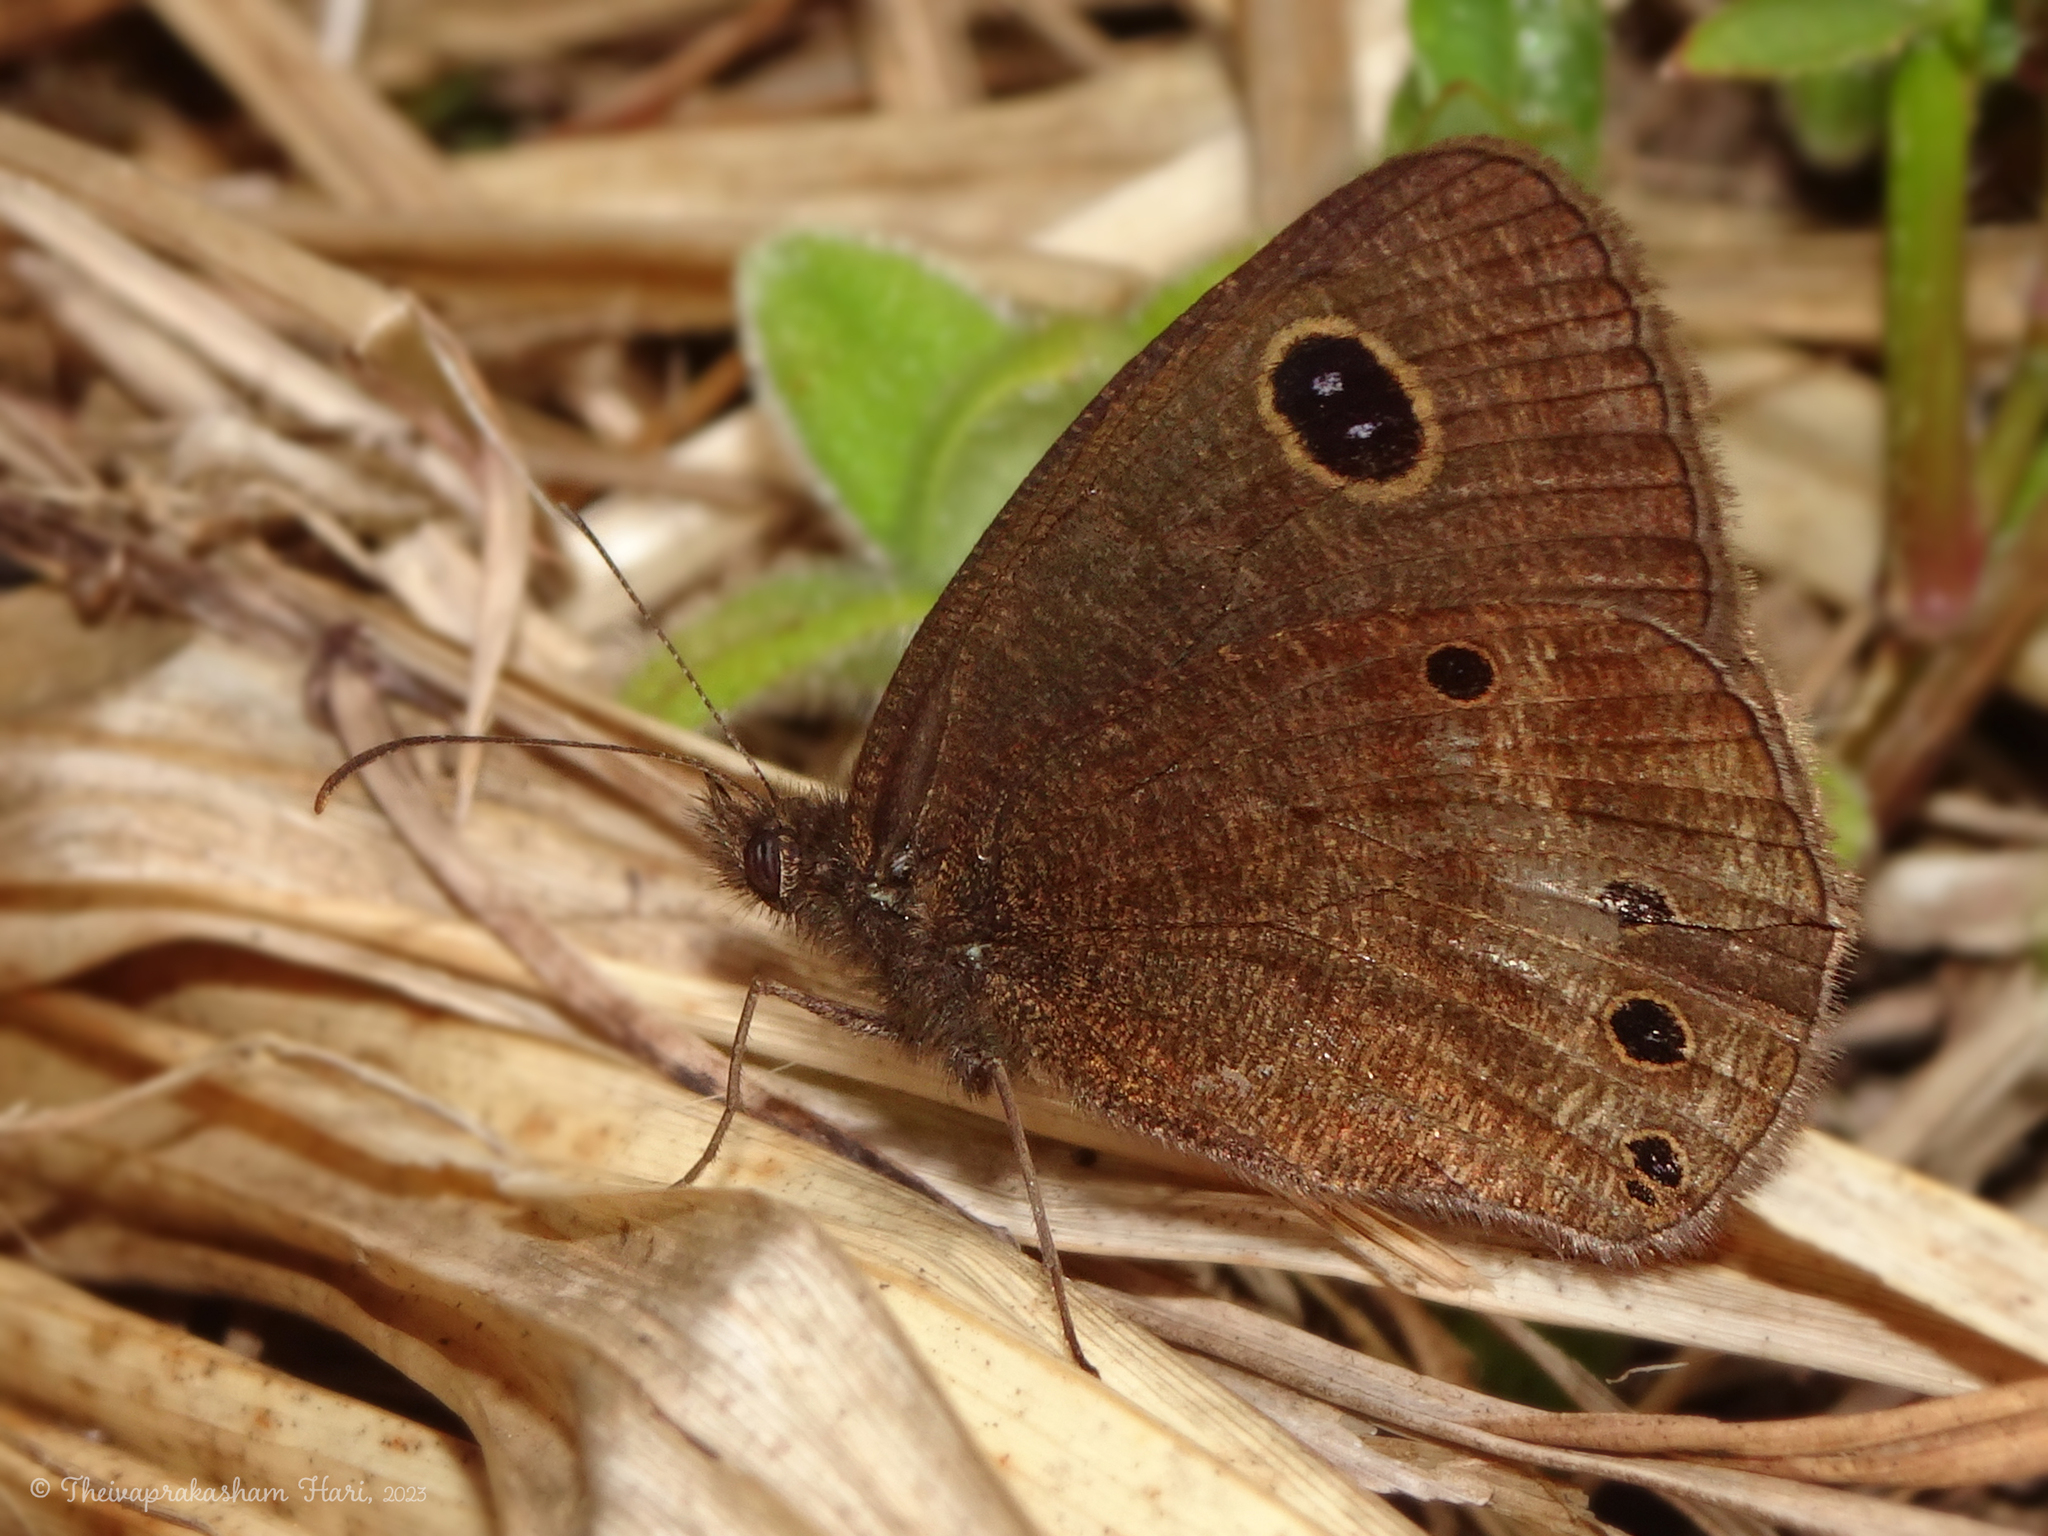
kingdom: Animalia
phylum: Arthropoda
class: Insecta
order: Lepidoptera
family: Nymphalidae
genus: Ypthima
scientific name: Ypthima ypthimoides
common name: Palni four-ring
